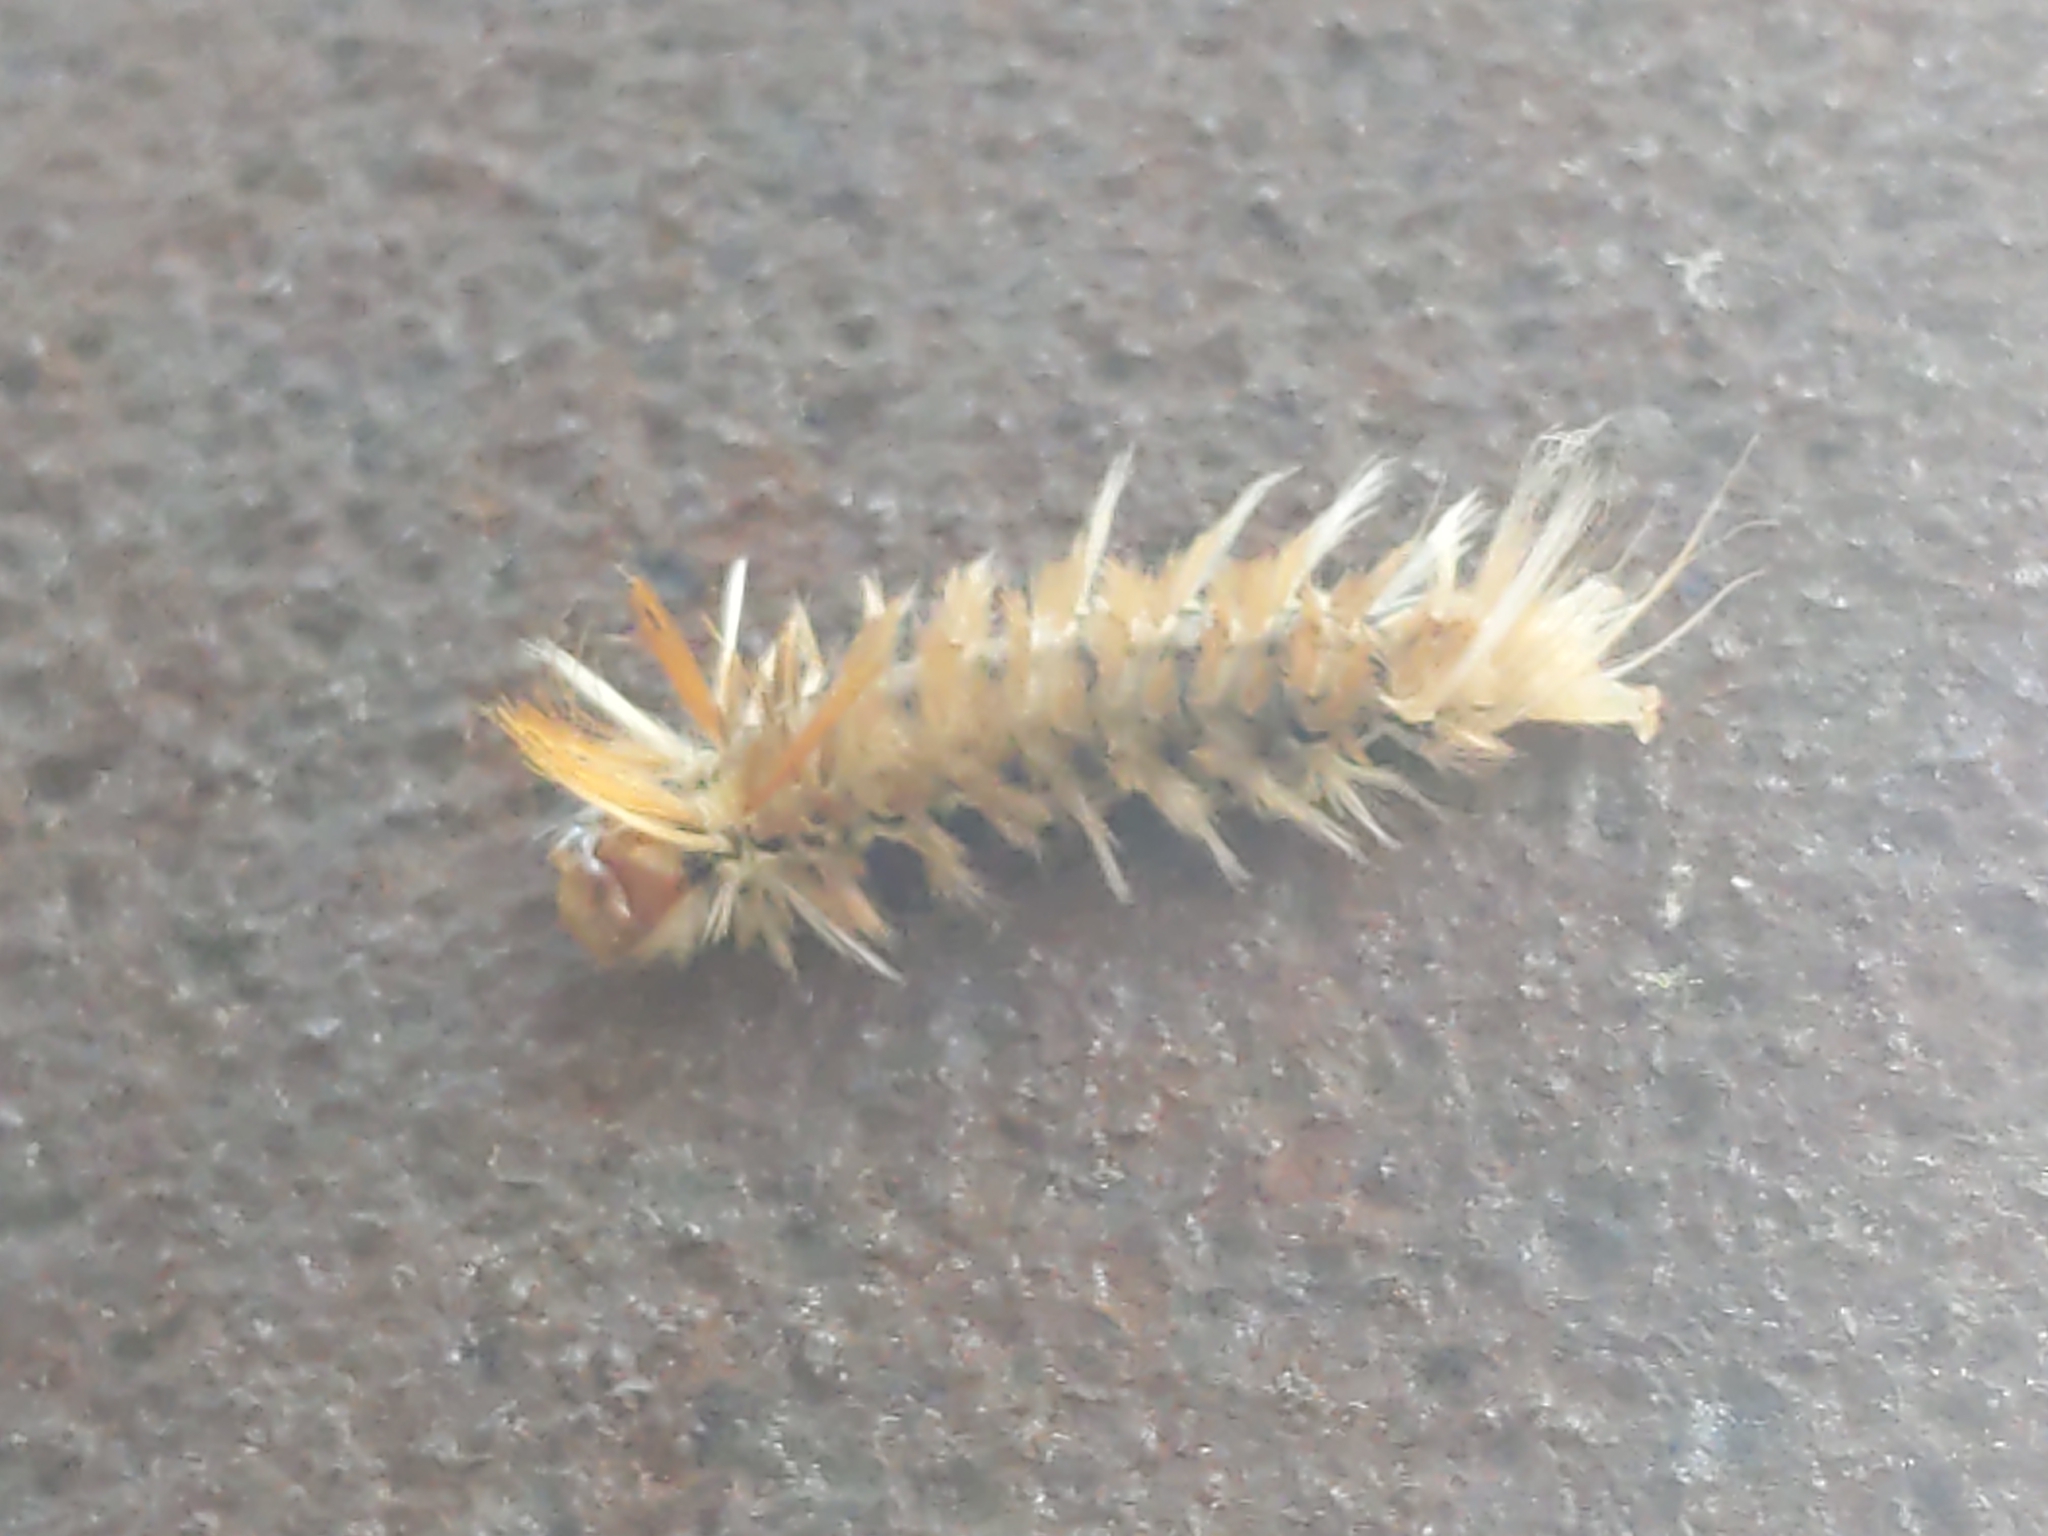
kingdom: Animalia
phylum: Arthropoda
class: Insecta
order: Lepidoptera
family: Erebidae
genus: Halysidota
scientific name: Halysidota harrisii
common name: Sycamore tussock moth
